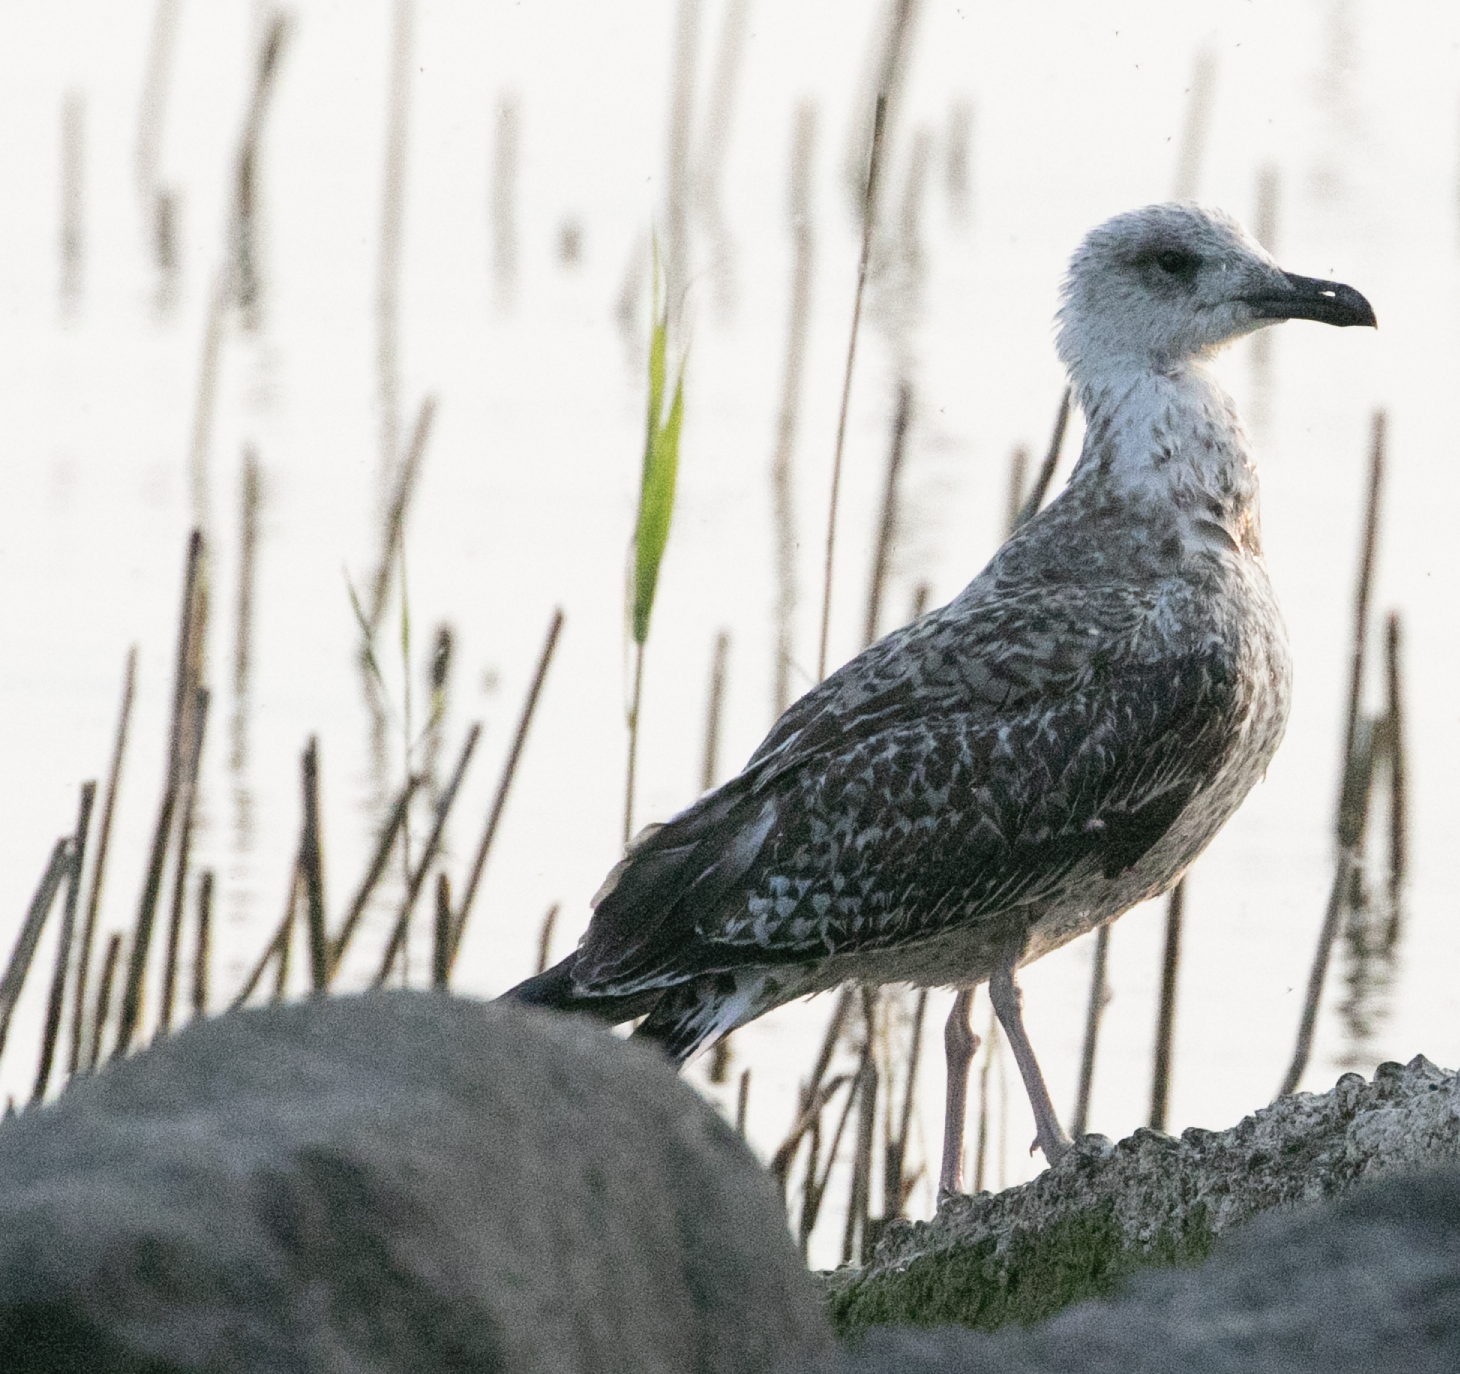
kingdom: Animalia
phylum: Chordata
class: Aves
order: Charadriiformes
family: Laridae
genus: Larus
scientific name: Larus michahellis
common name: Yellow-legged gull
